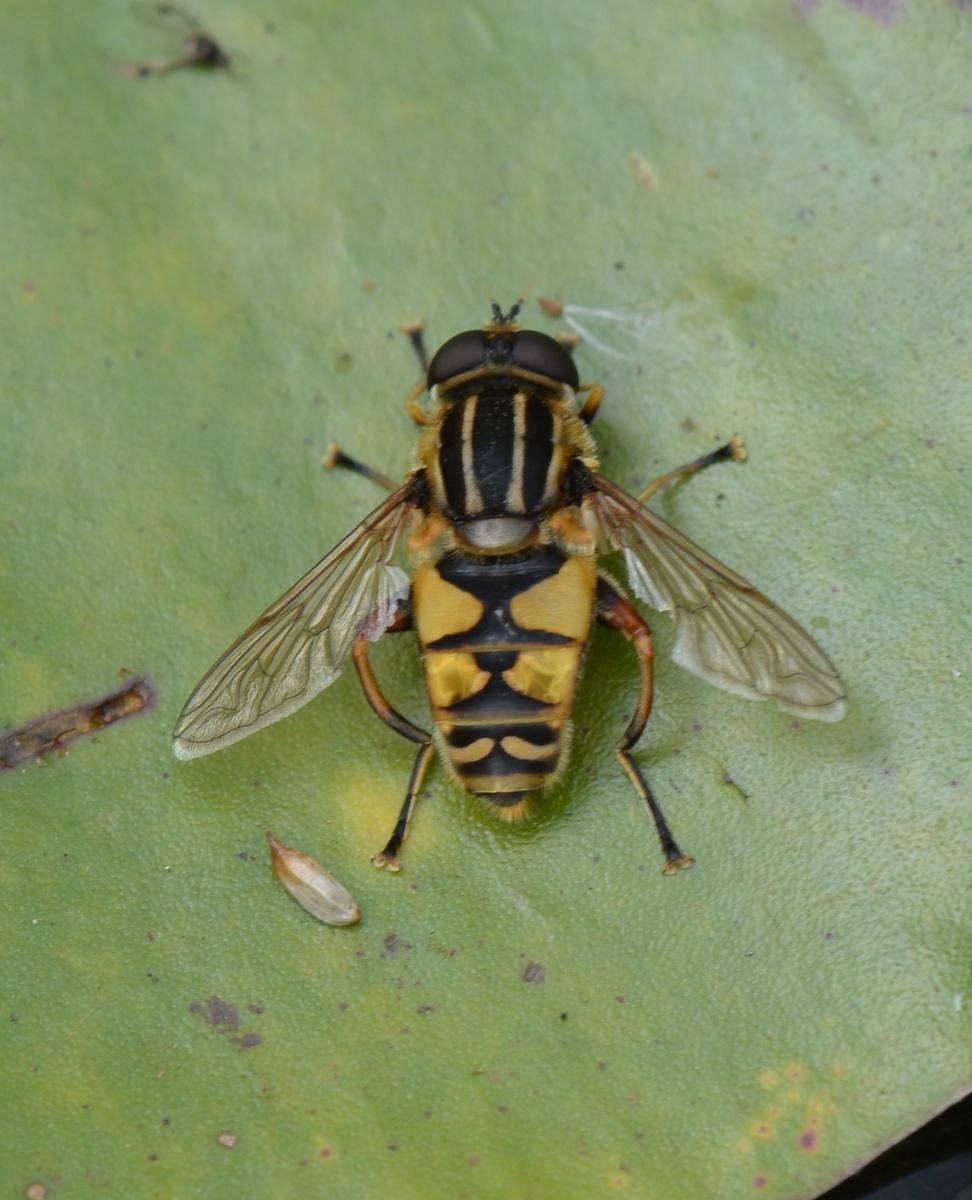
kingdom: Animalia
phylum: Arthropoda
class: Insecta
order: Diptera
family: Syrphidae
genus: Helophilus
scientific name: Helophilus pendulus
